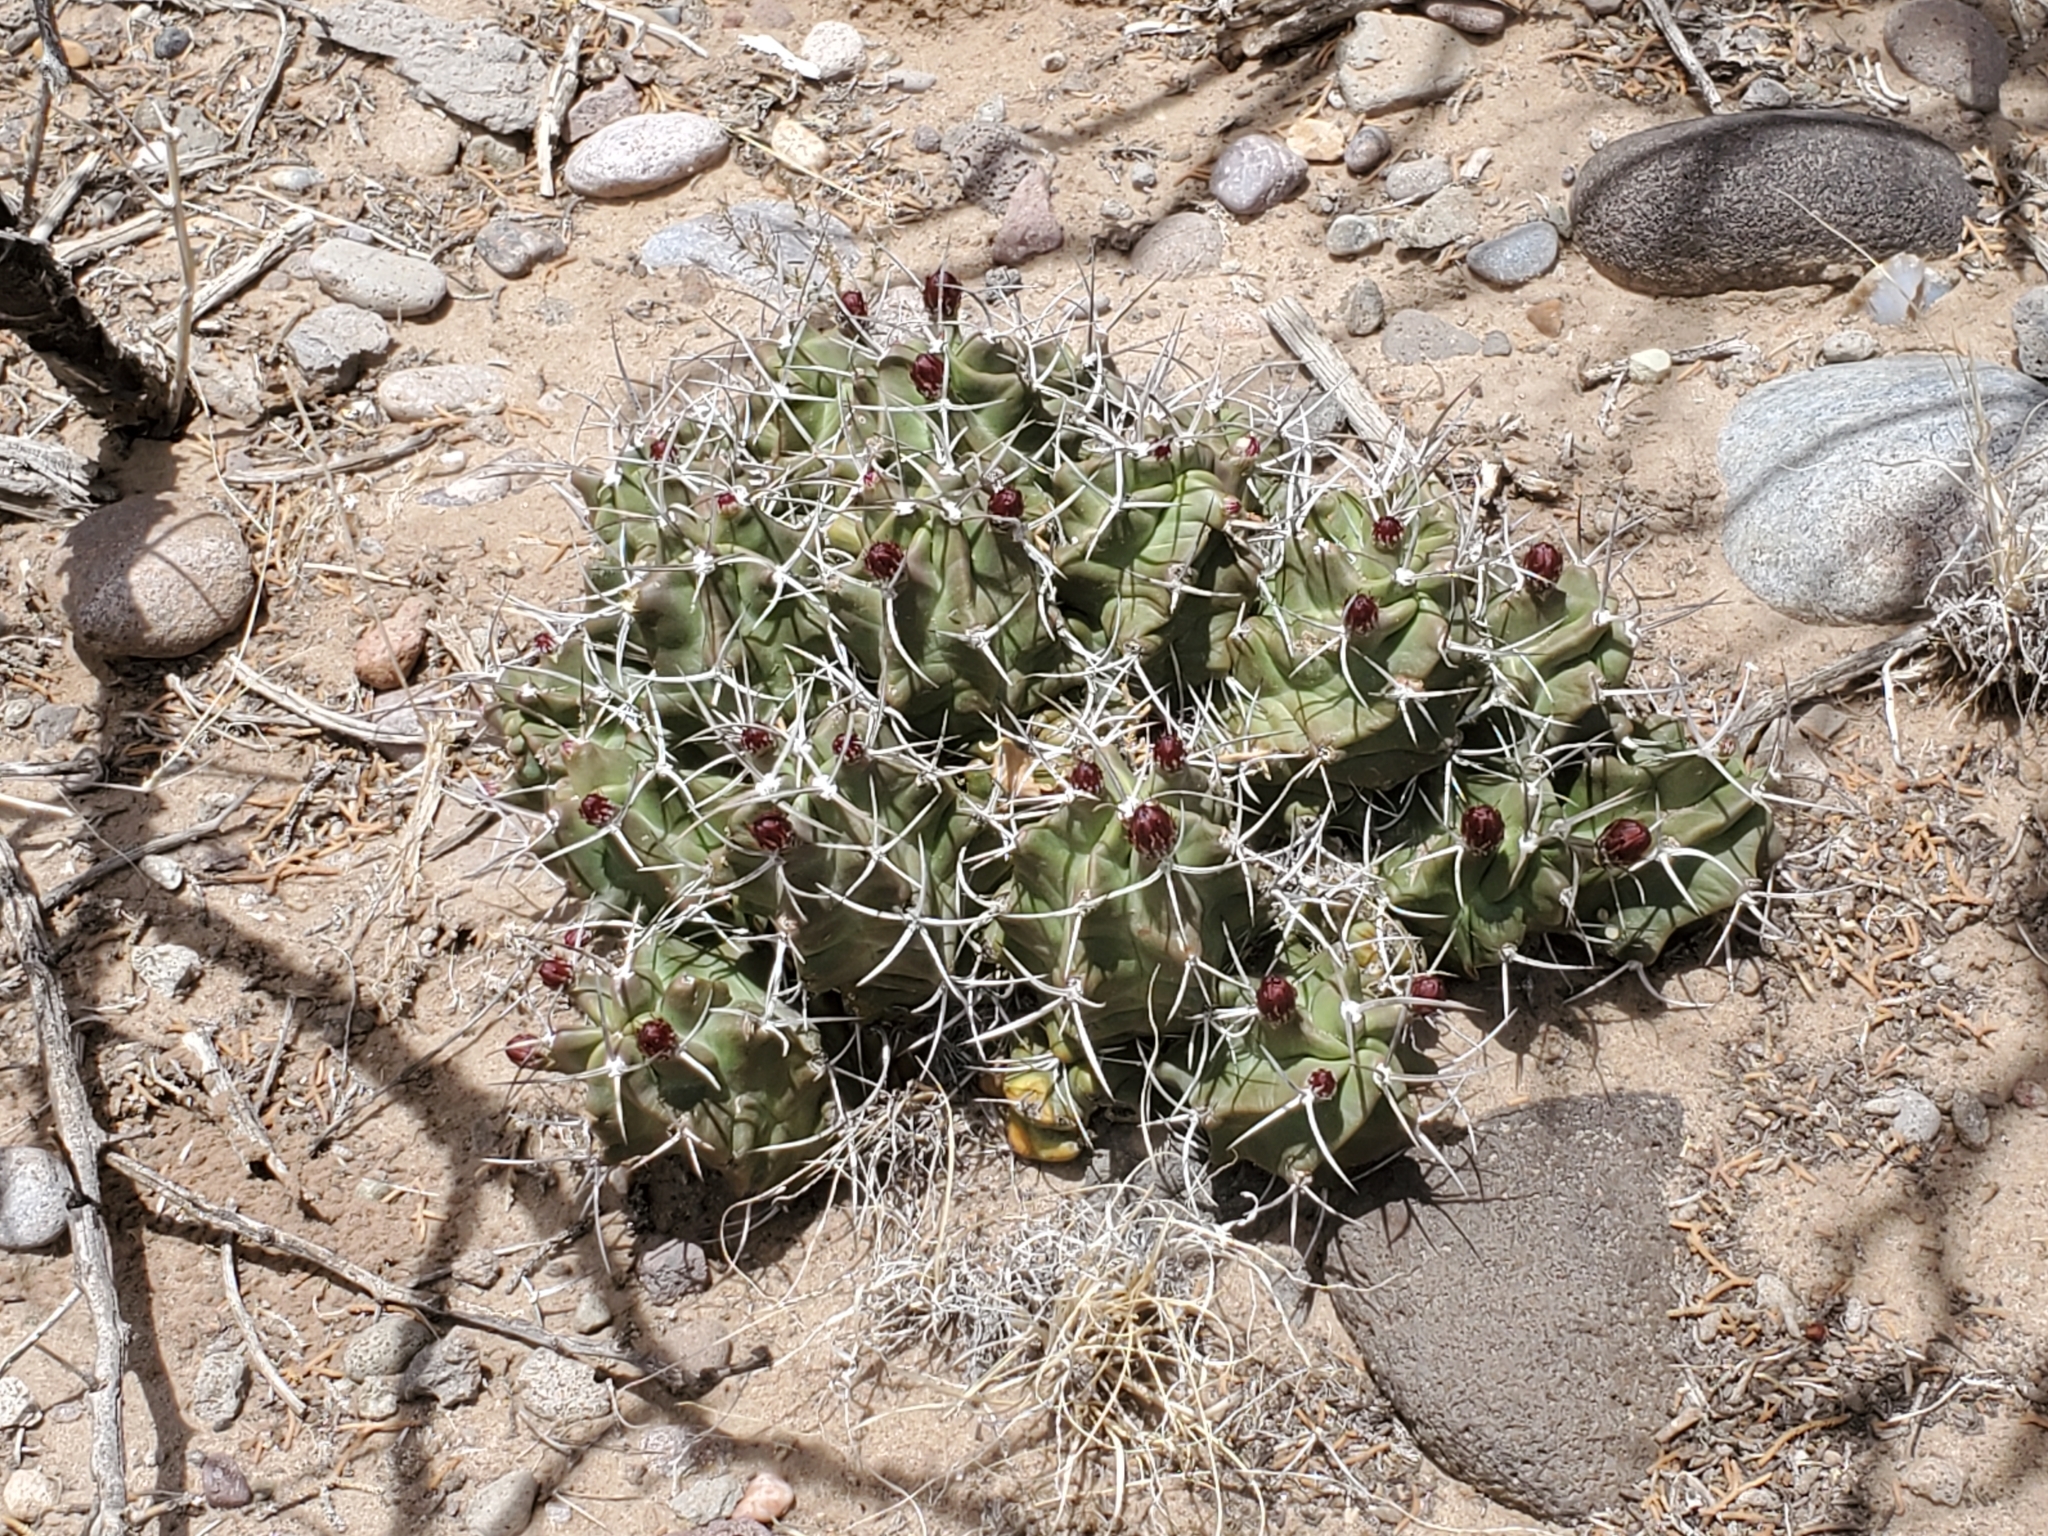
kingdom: Plantae
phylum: Tracheophyta
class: Magnoliopsida
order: Caryophyllales
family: Cactaceae
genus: Echinocereus
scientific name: Echinocereus triglochidiatus
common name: Claretcup hedgehog
